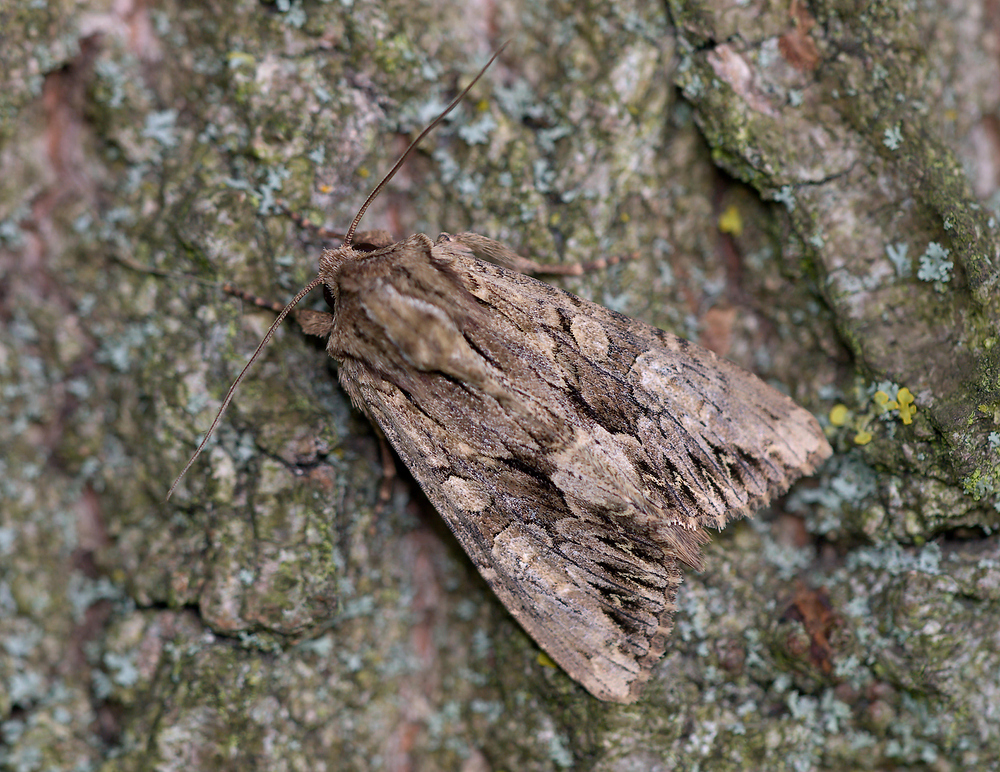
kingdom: Animalia
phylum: Arthropoda
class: Insecta
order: Lepidoptera
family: Noctuidae
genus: Apamea
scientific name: Apamea monoglypha
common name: Dark arches
